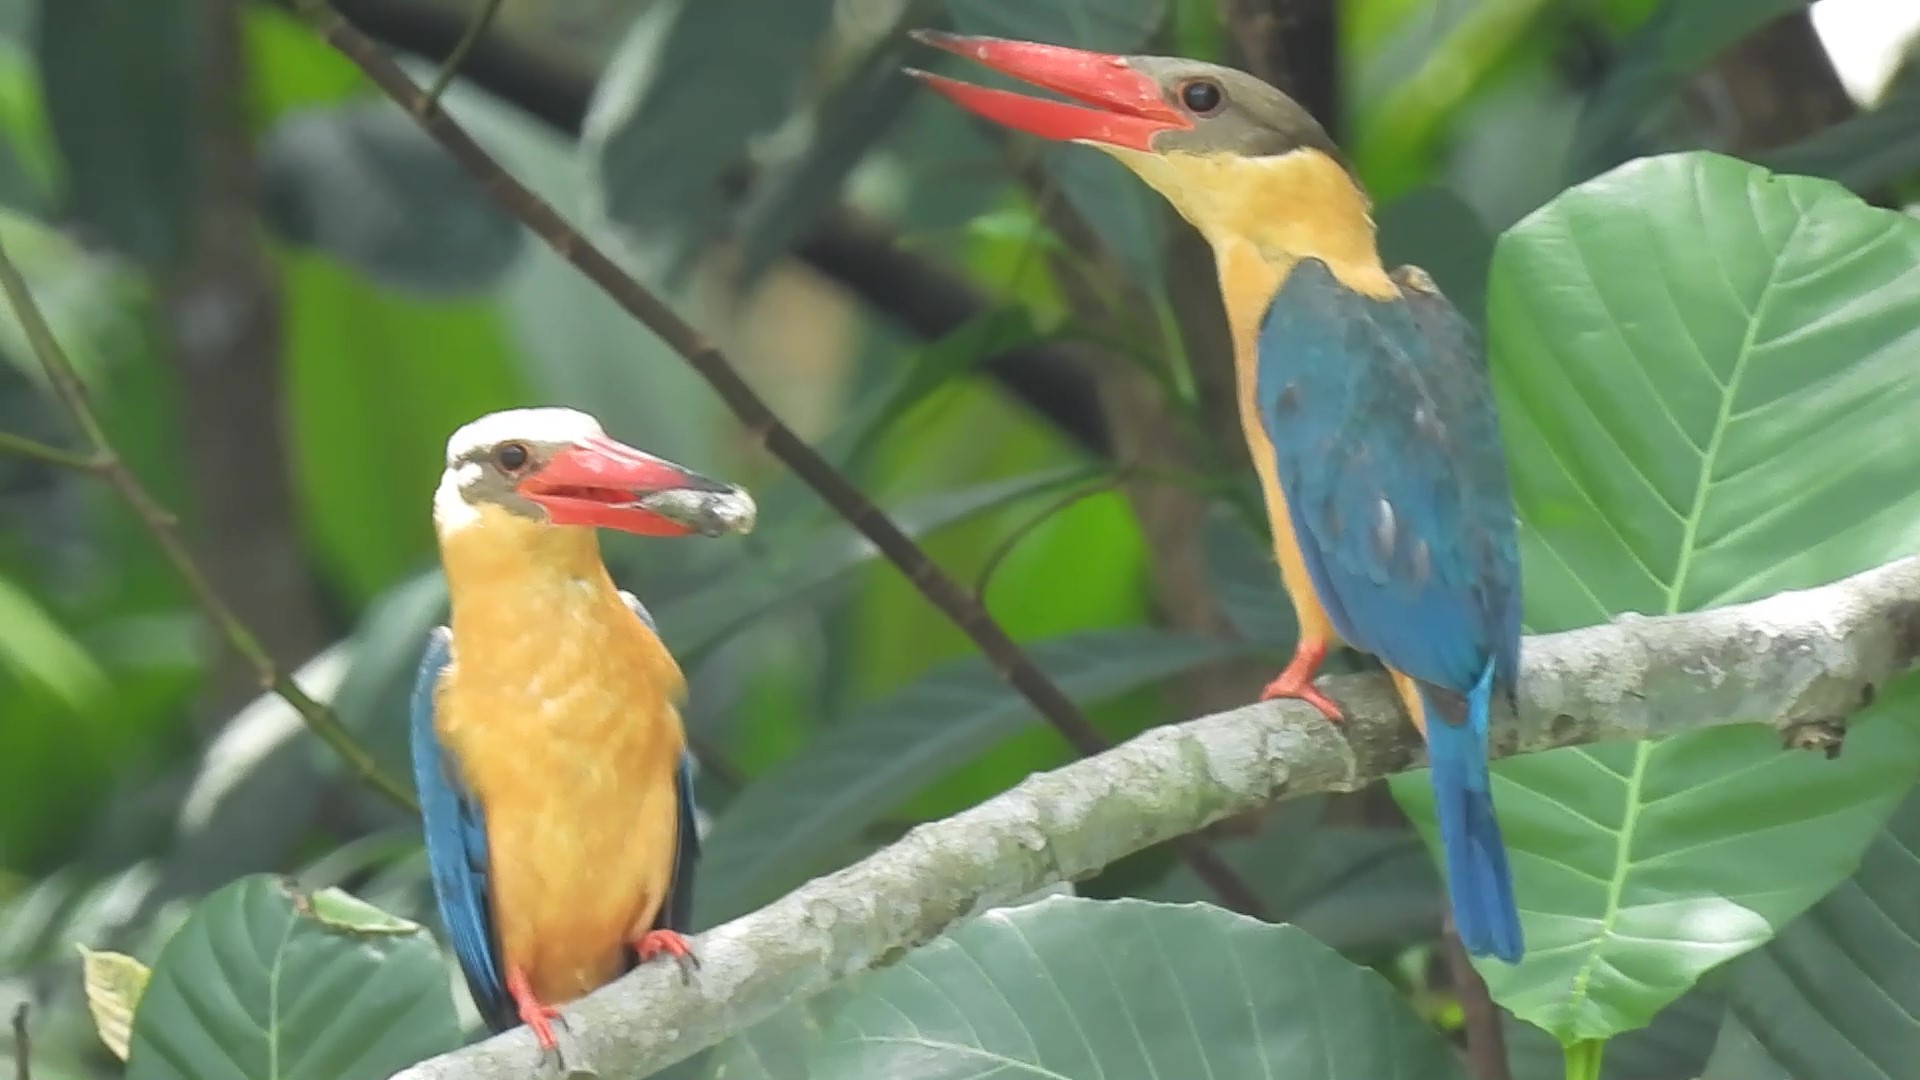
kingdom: Animalia
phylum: Chordata
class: Aves
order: Coraciiformes
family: Alcedinidae
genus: Pelargopsis
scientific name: Pelargopsis capensis
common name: Stork-billed kingfisher
